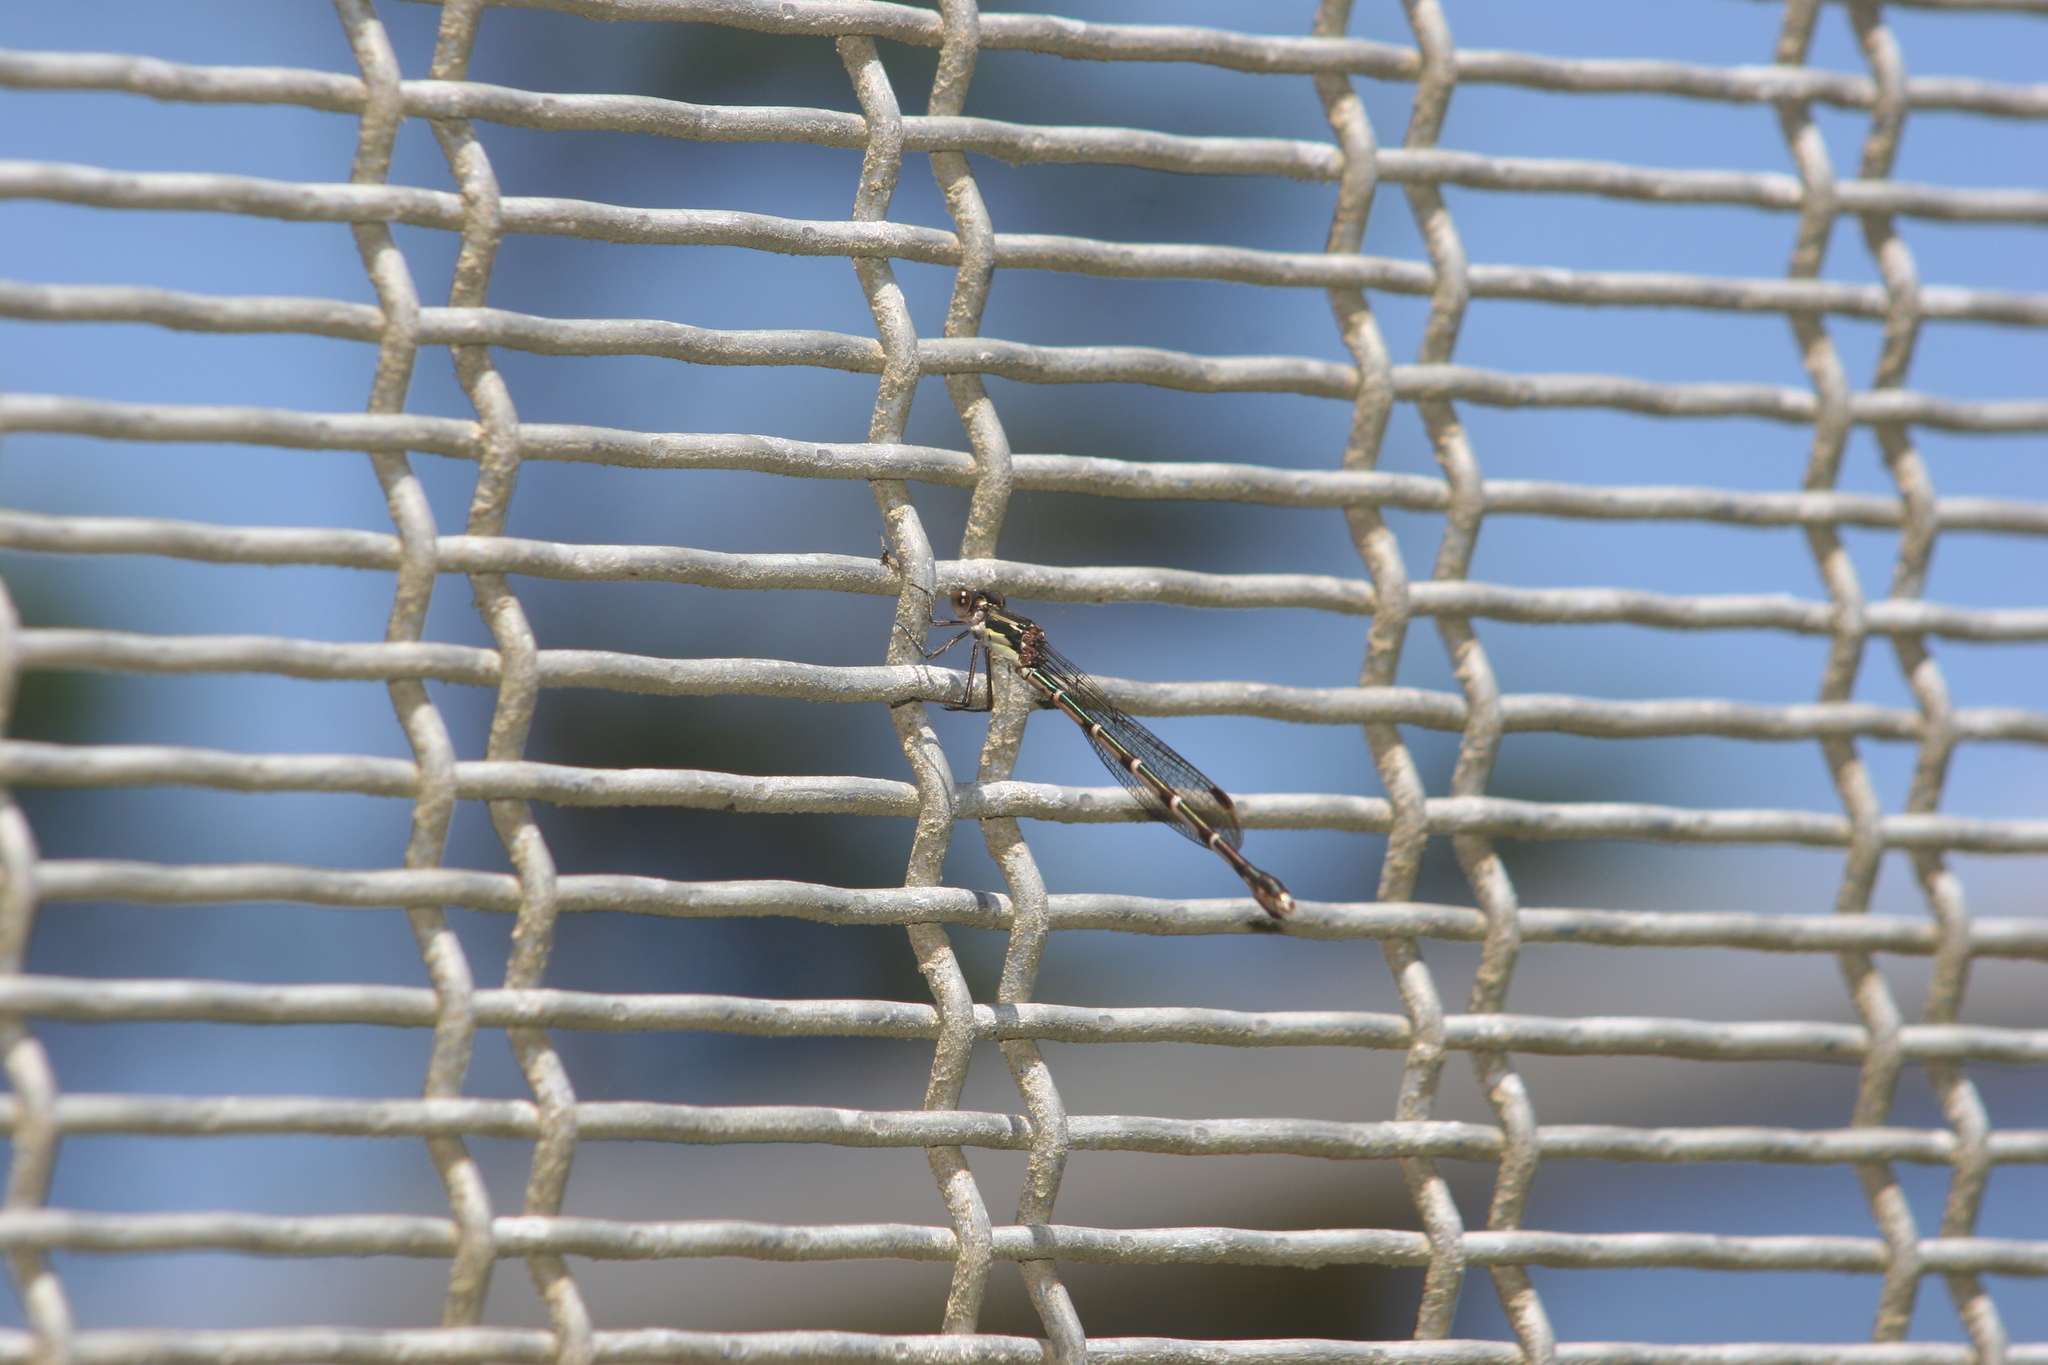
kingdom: Animalia
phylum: Arthropoda
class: Insecta
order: Odonata
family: Lestidae
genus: Austrolestes
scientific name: Austrolestes colensonis
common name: Blue damselfly
